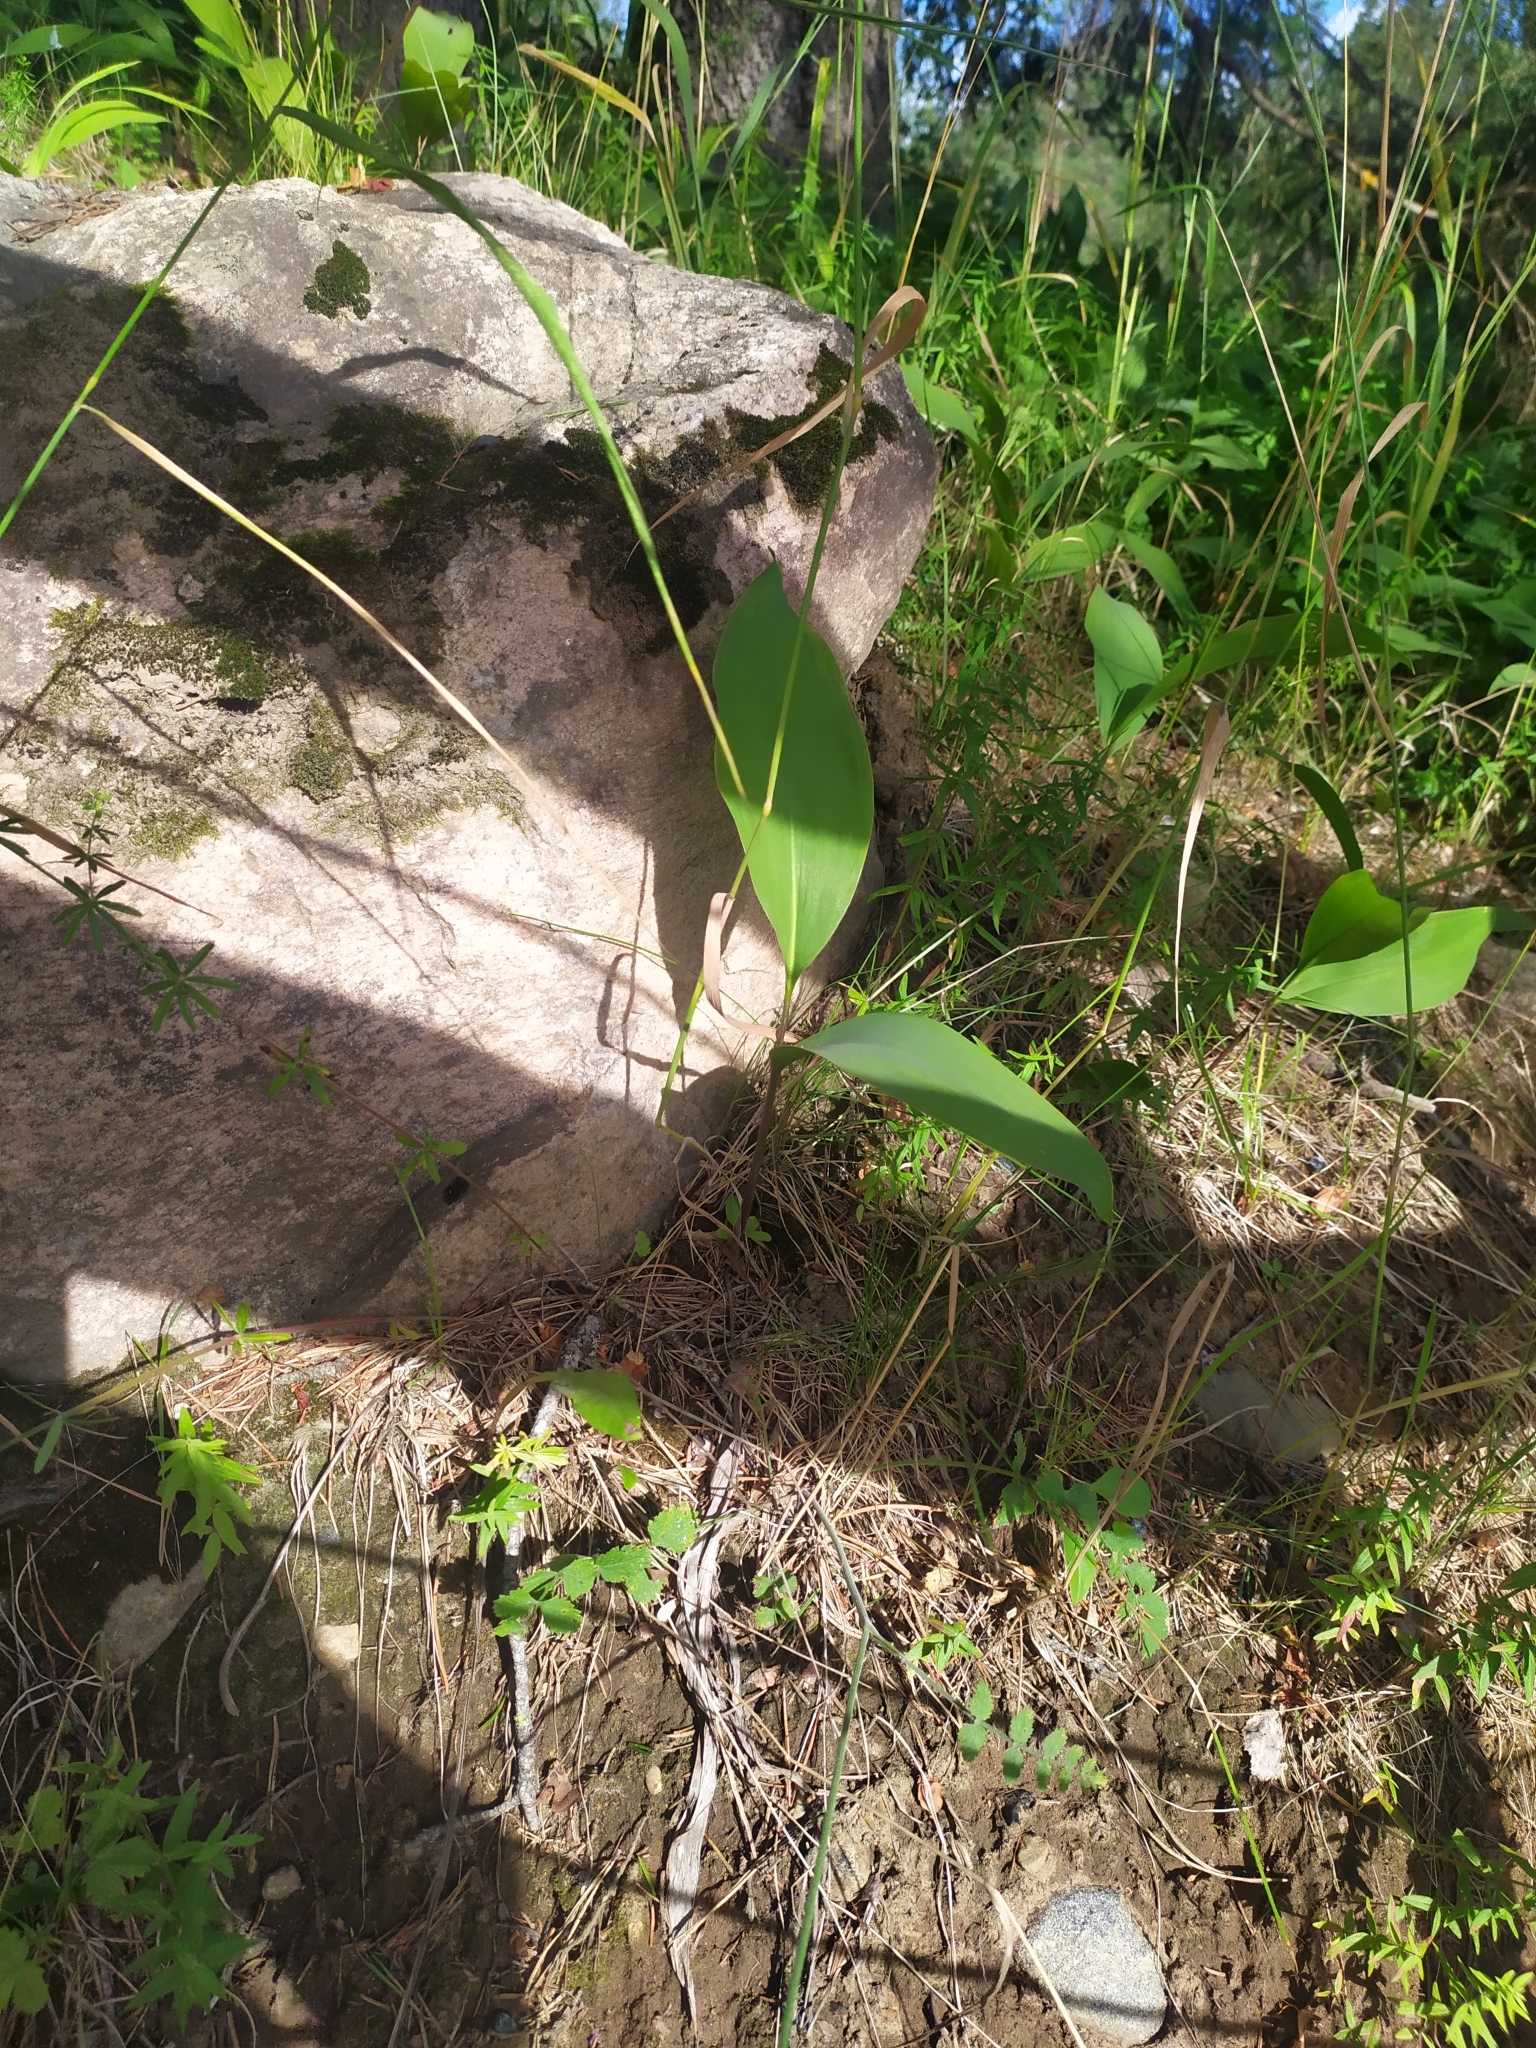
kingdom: Plantae
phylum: Tracheophyta
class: Liliopsida
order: Asparagales
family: Asparagaceae
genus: Convallaria
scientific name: Convallaria majalis
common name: Lily-of-the-valley
